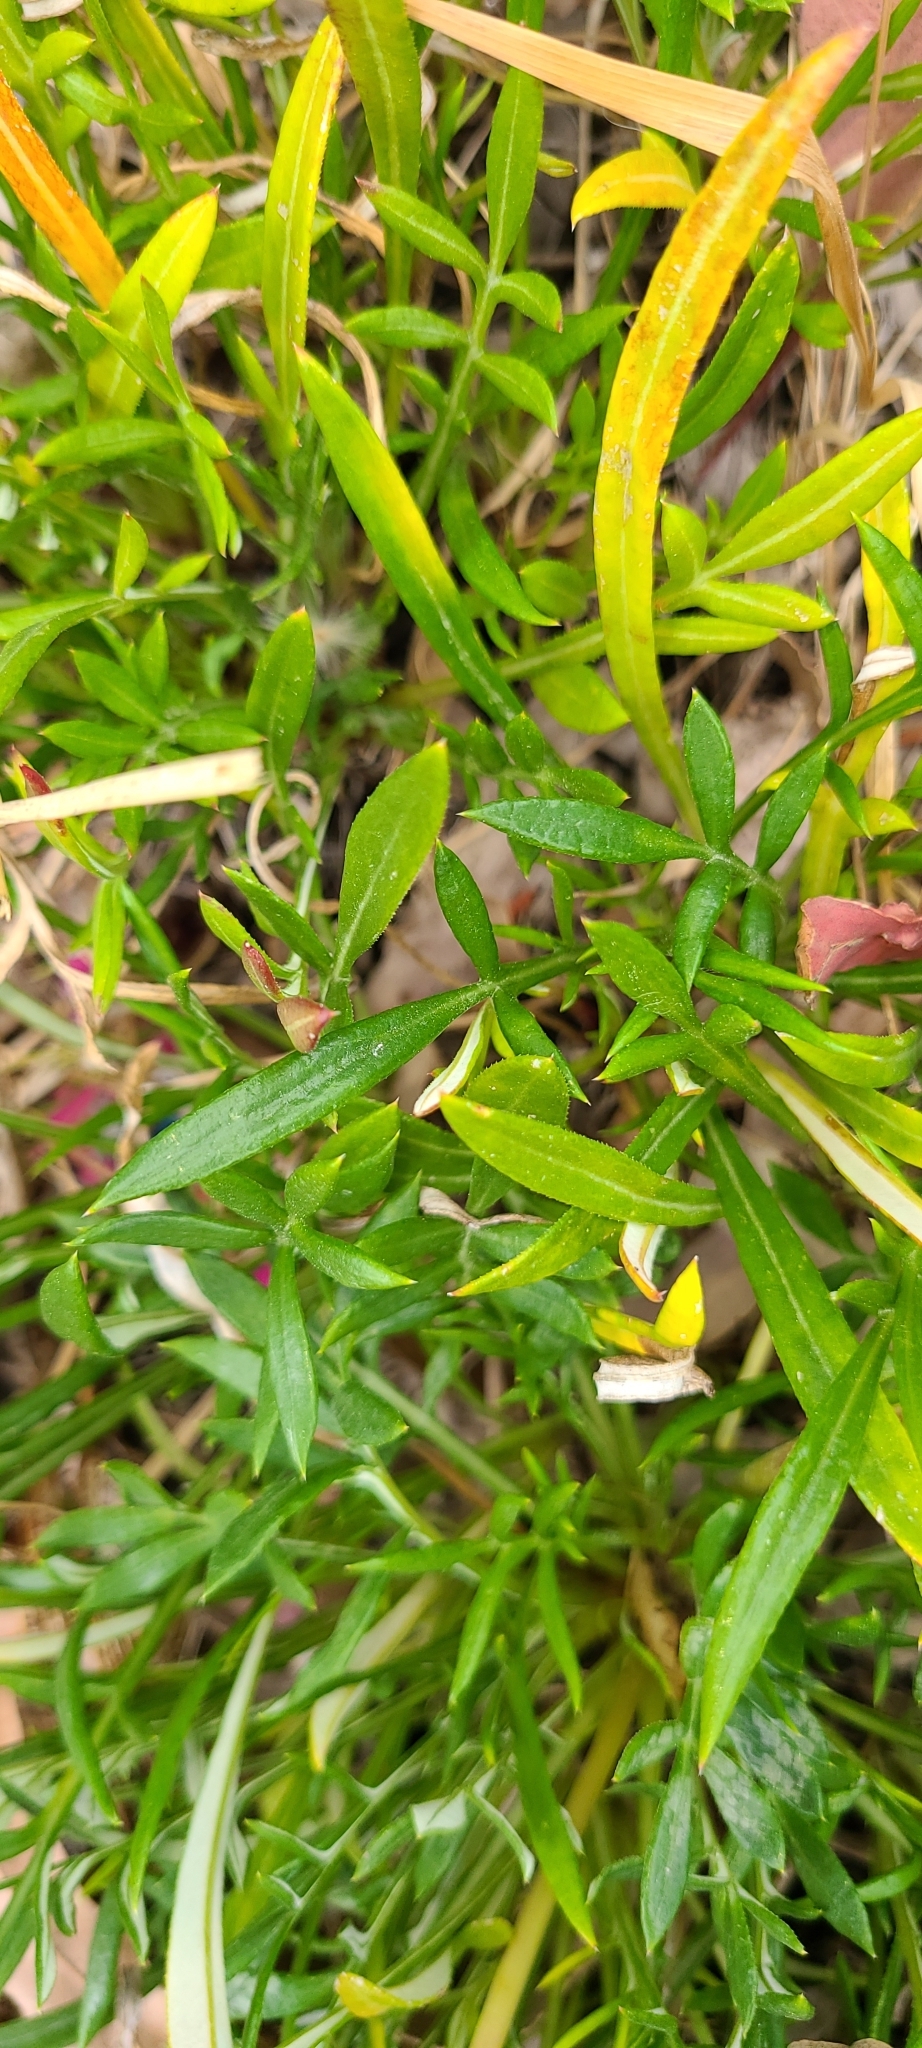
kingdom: Plantae
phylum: Tracheophyta
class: Magnoliopsida
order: Asterales
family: Asteraceae
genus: Gazania
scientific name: Gazania splendens
